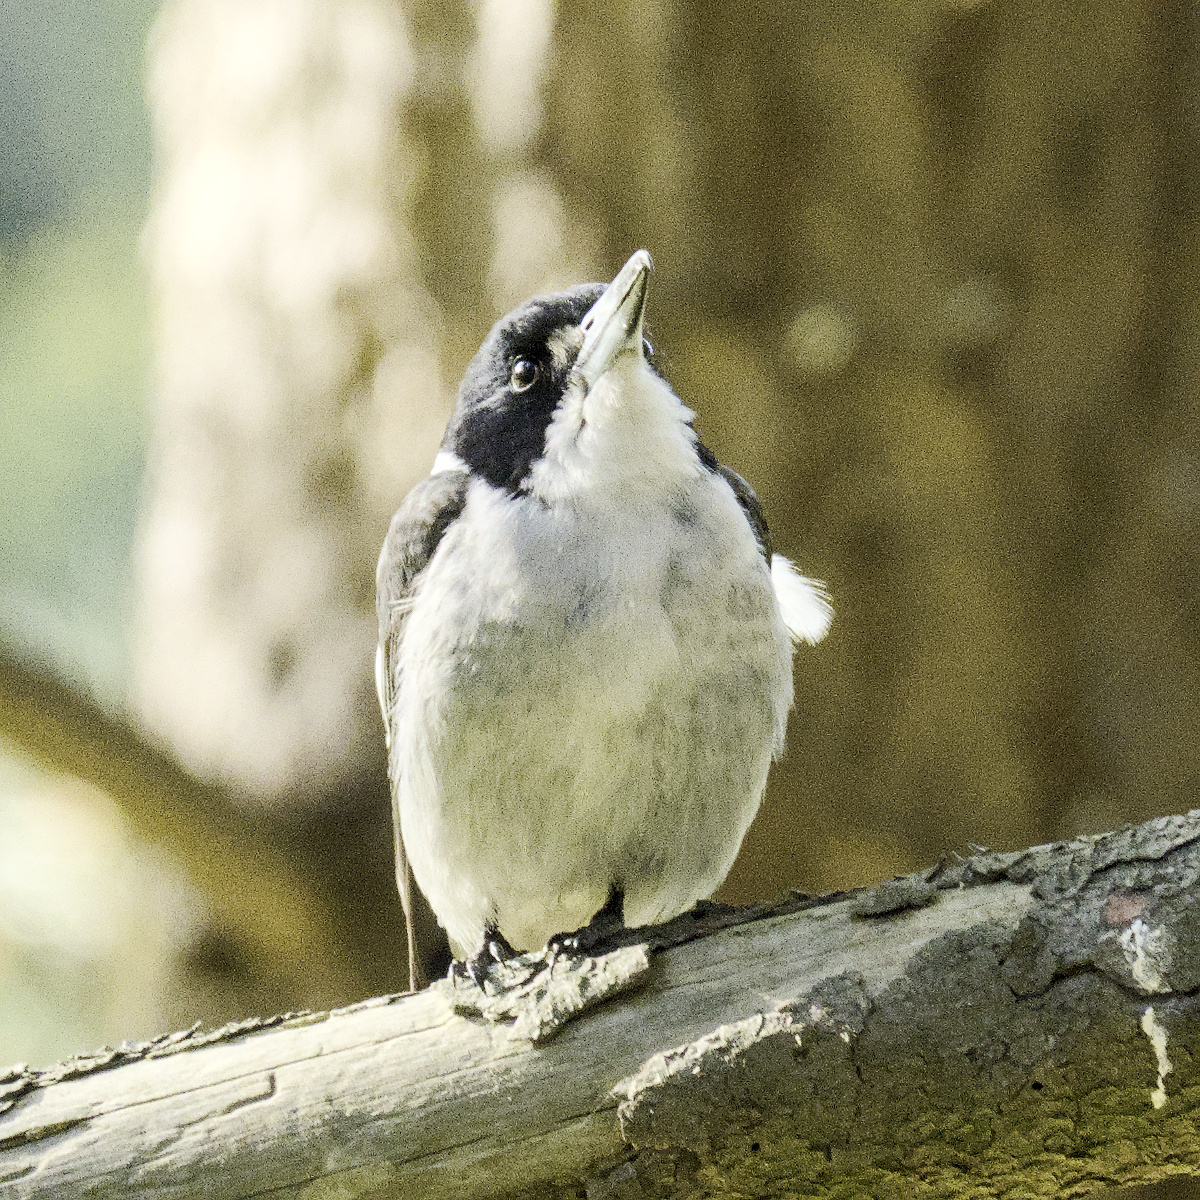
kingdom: Animalia
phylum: Chordata
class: Aves
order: Passeriformes
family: Cracticidae
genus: Cracticus
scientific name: Cracticus torquatus
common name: Grey butcherbird
